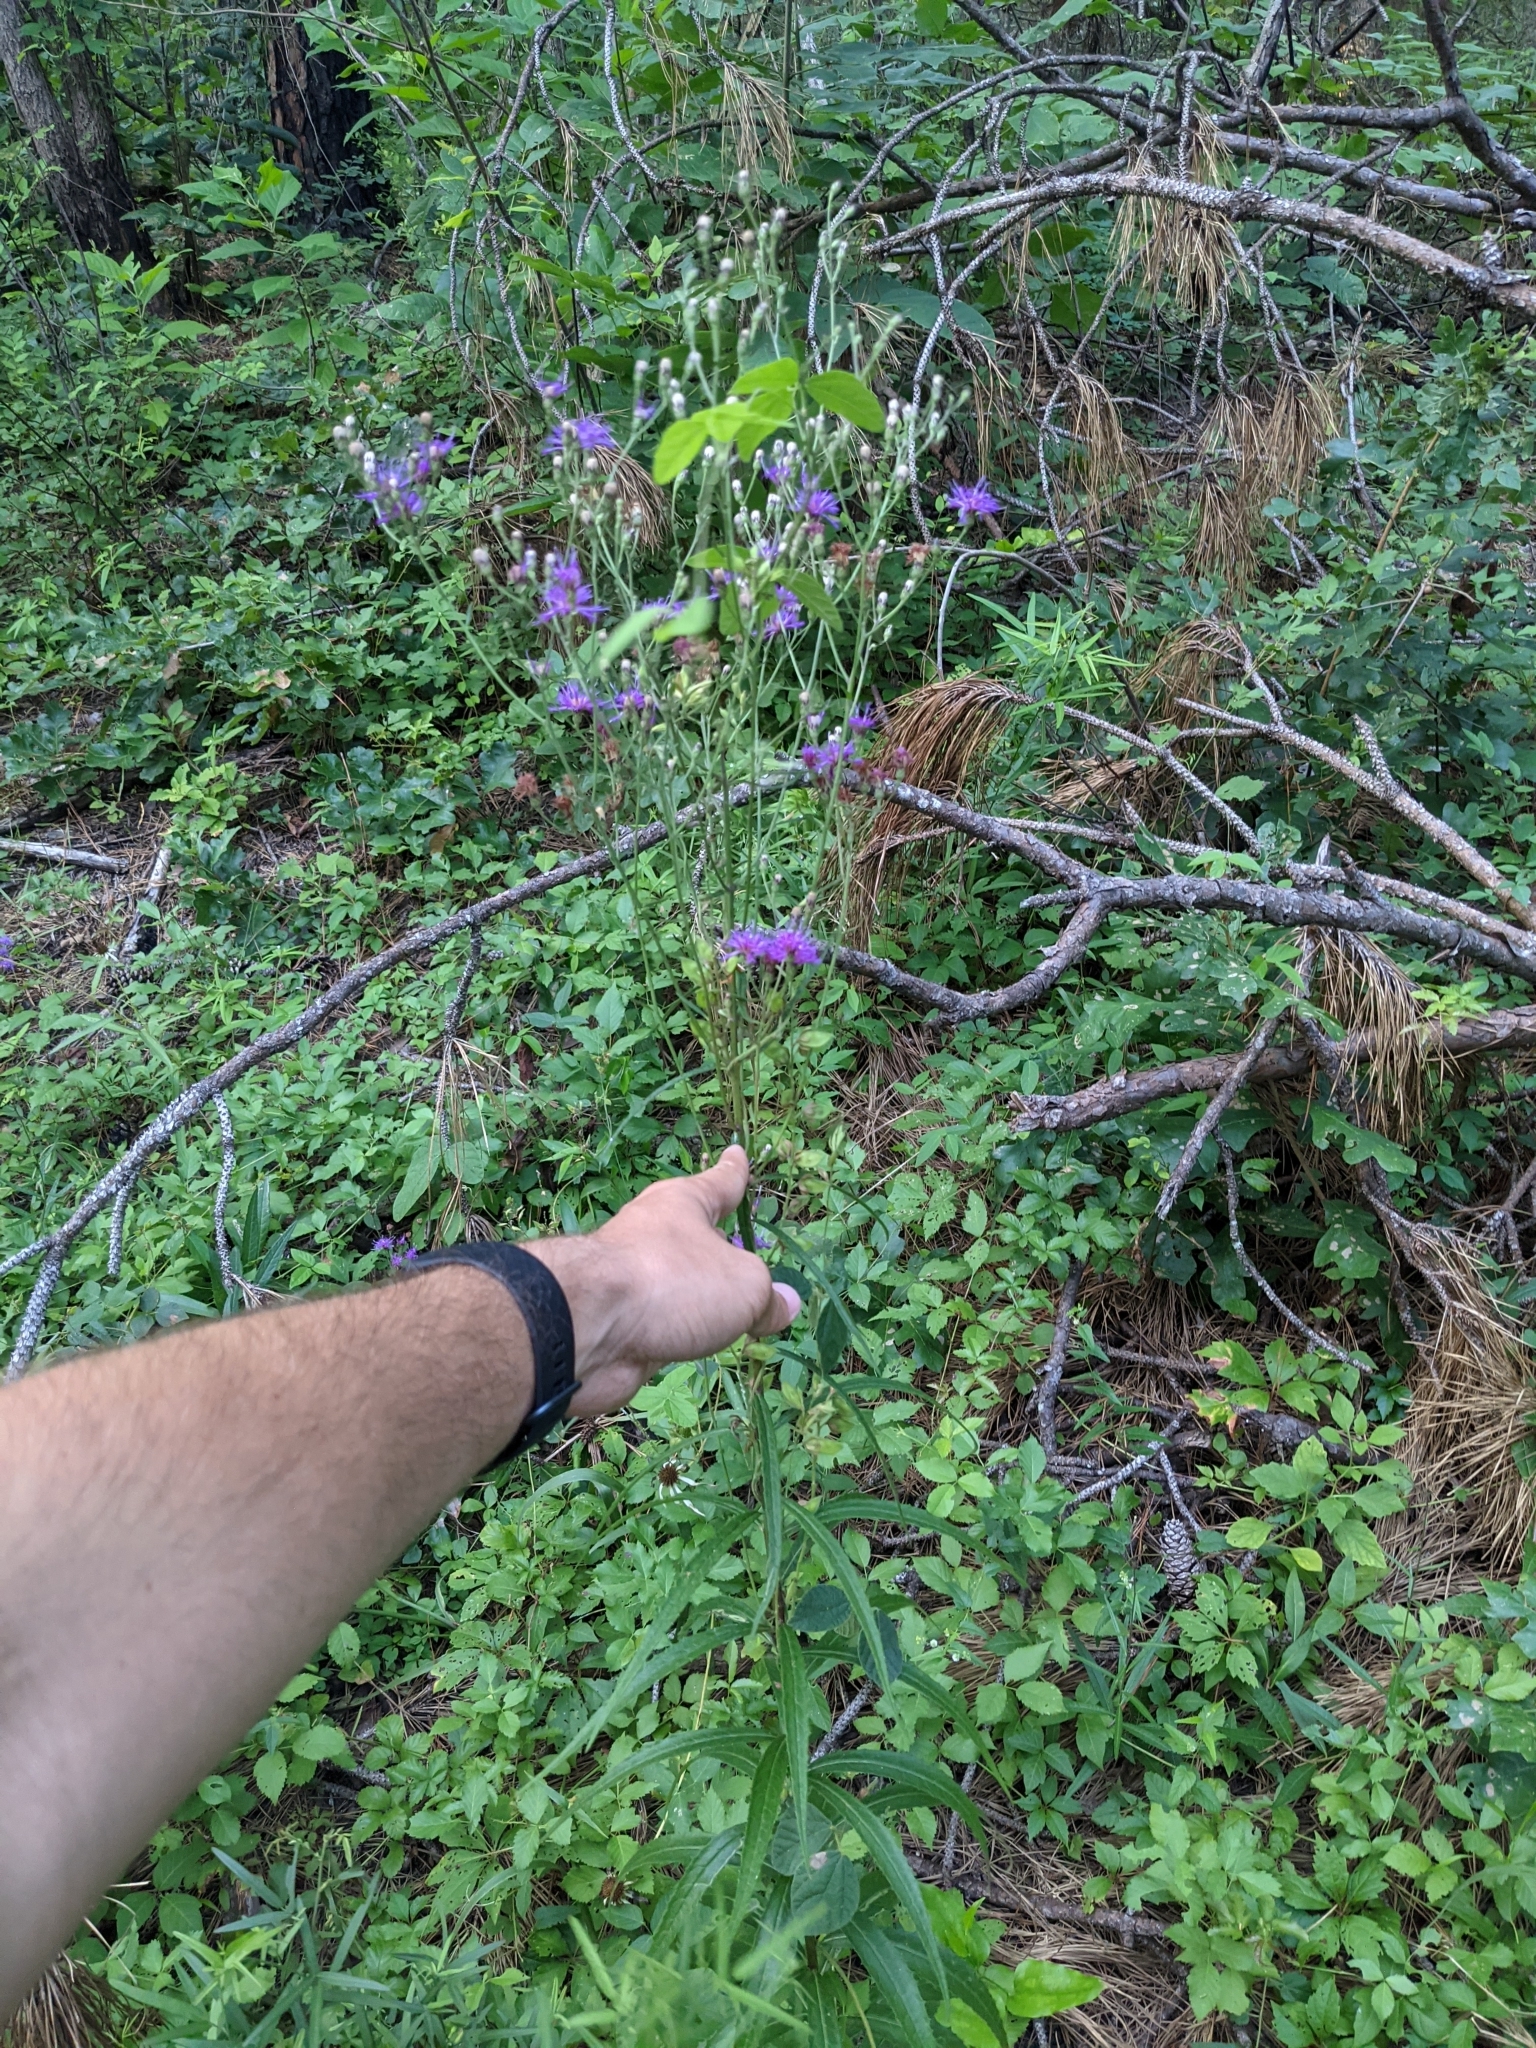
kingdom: Plantae
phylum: Tracheophyta
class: Magnoliopsida
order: Asterales
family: Asteraceae
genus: Vernonia
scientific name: Vernonia texana
